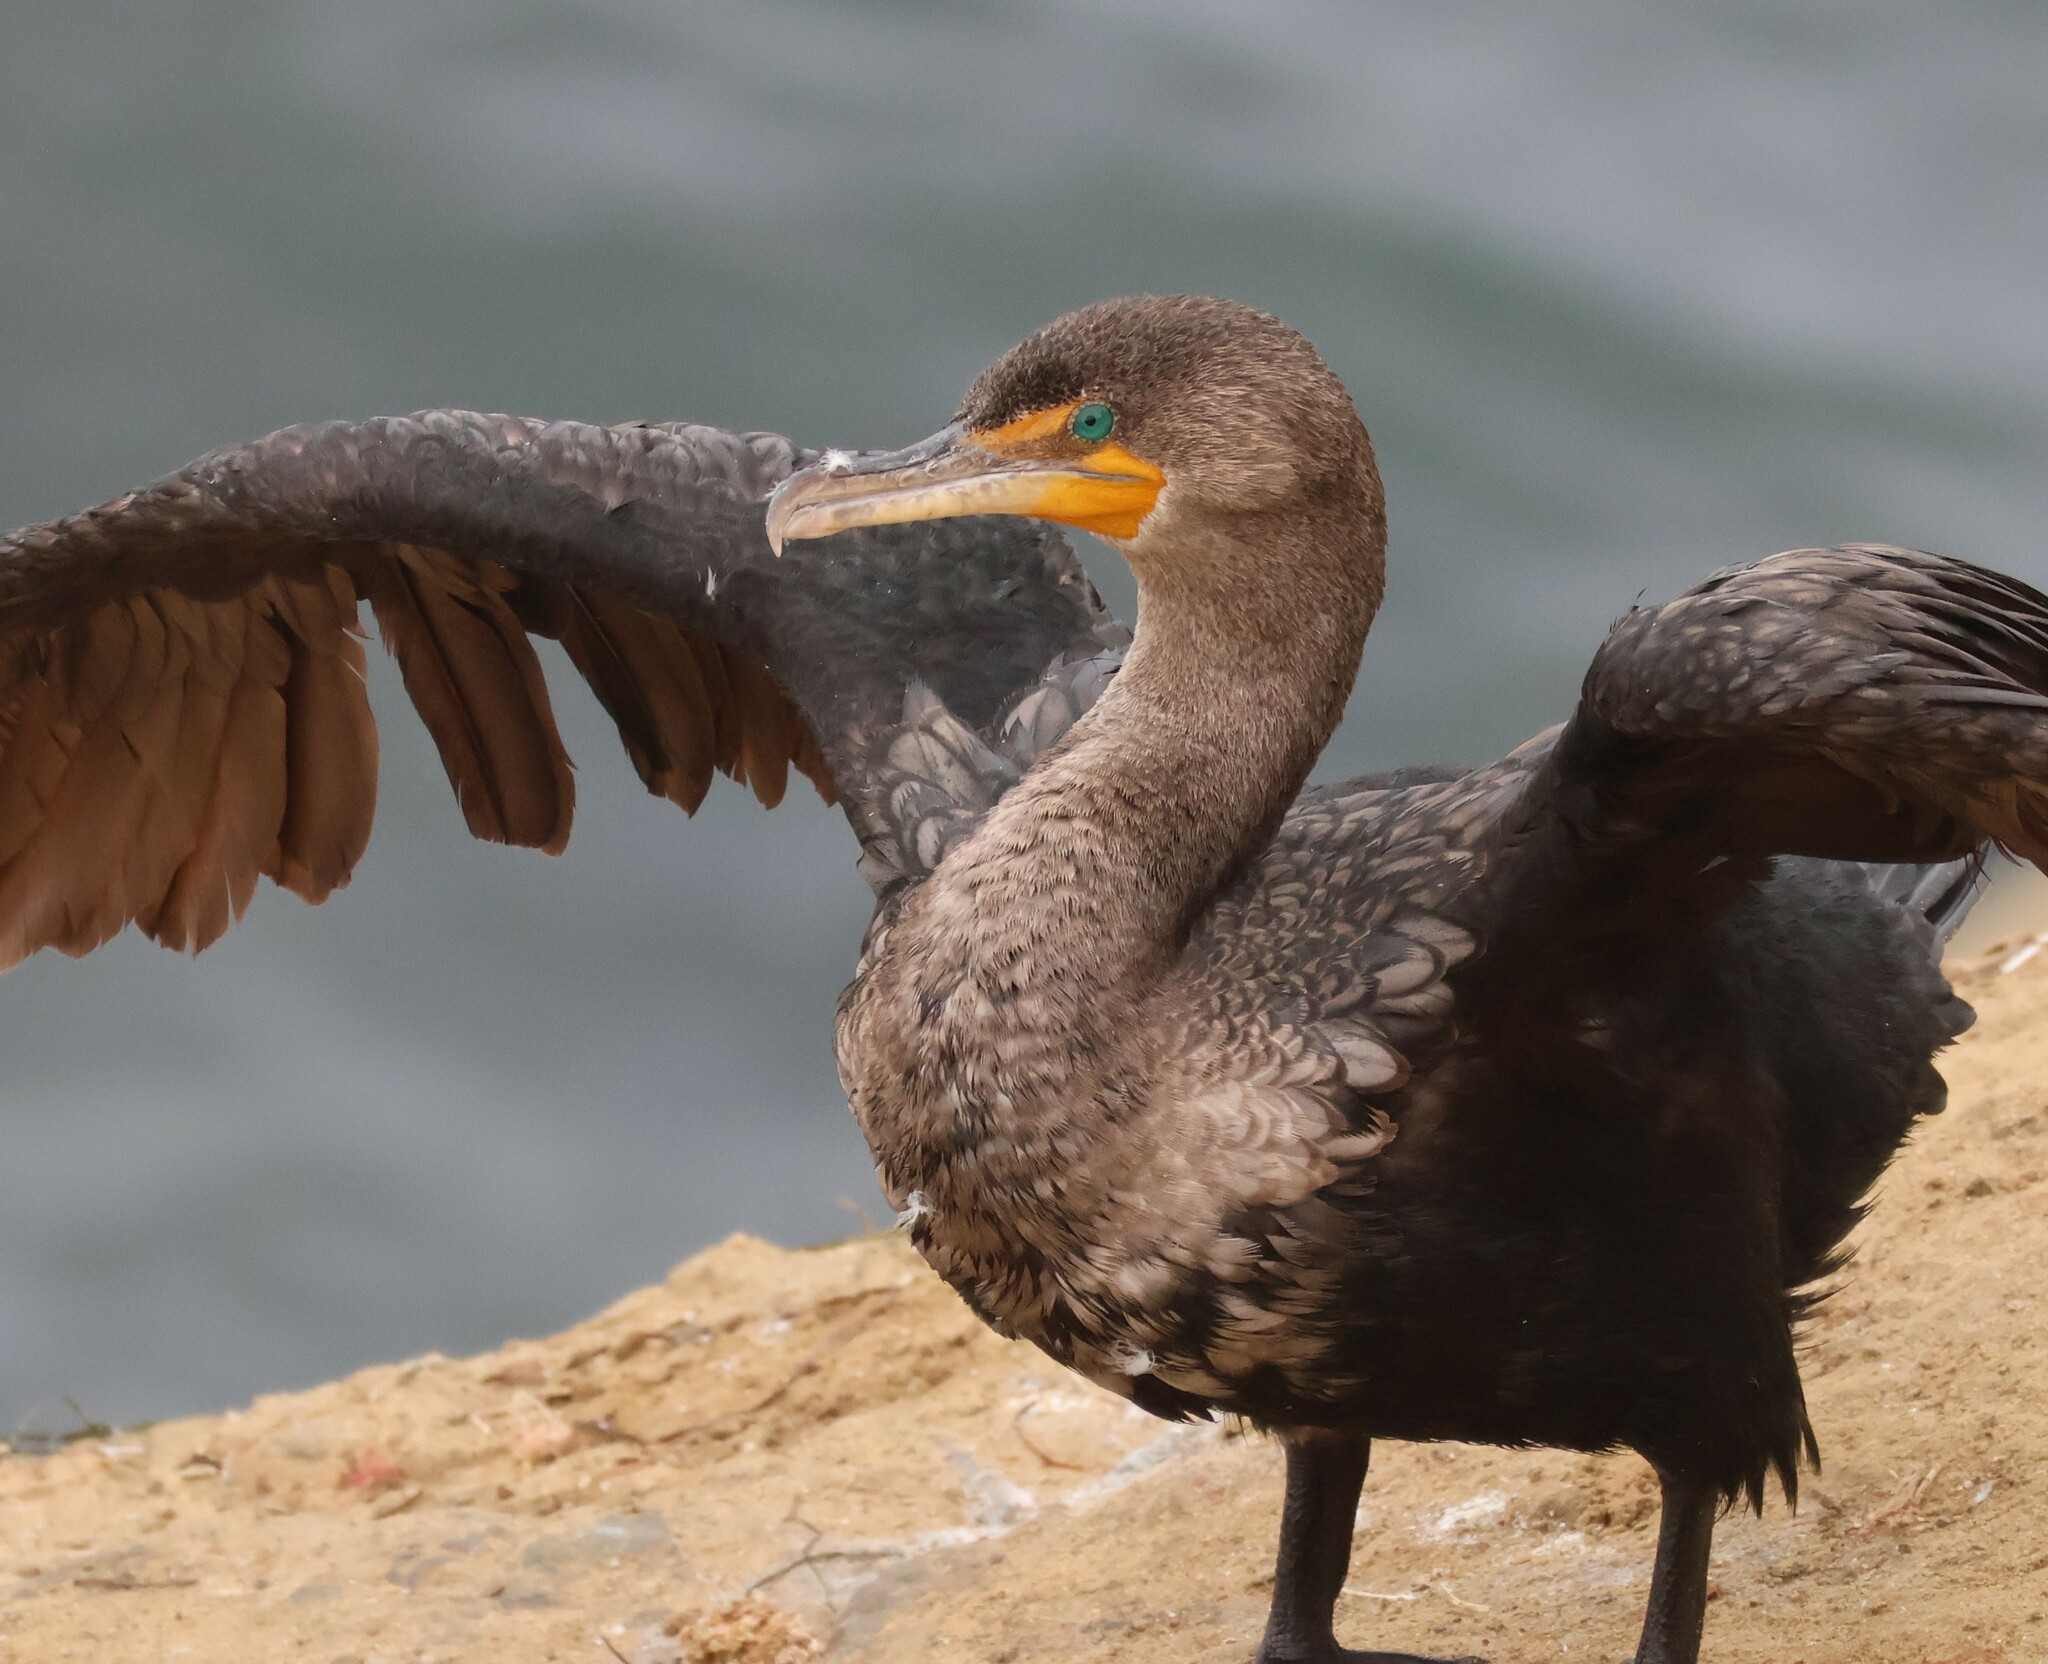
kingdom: Animalia
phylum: Chordata
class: Aves
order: Suliformes
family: Phalacrocoracidae
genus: Phalacrocorax
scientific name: Phalacrocorax auritus
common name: Double-crested cormorant
